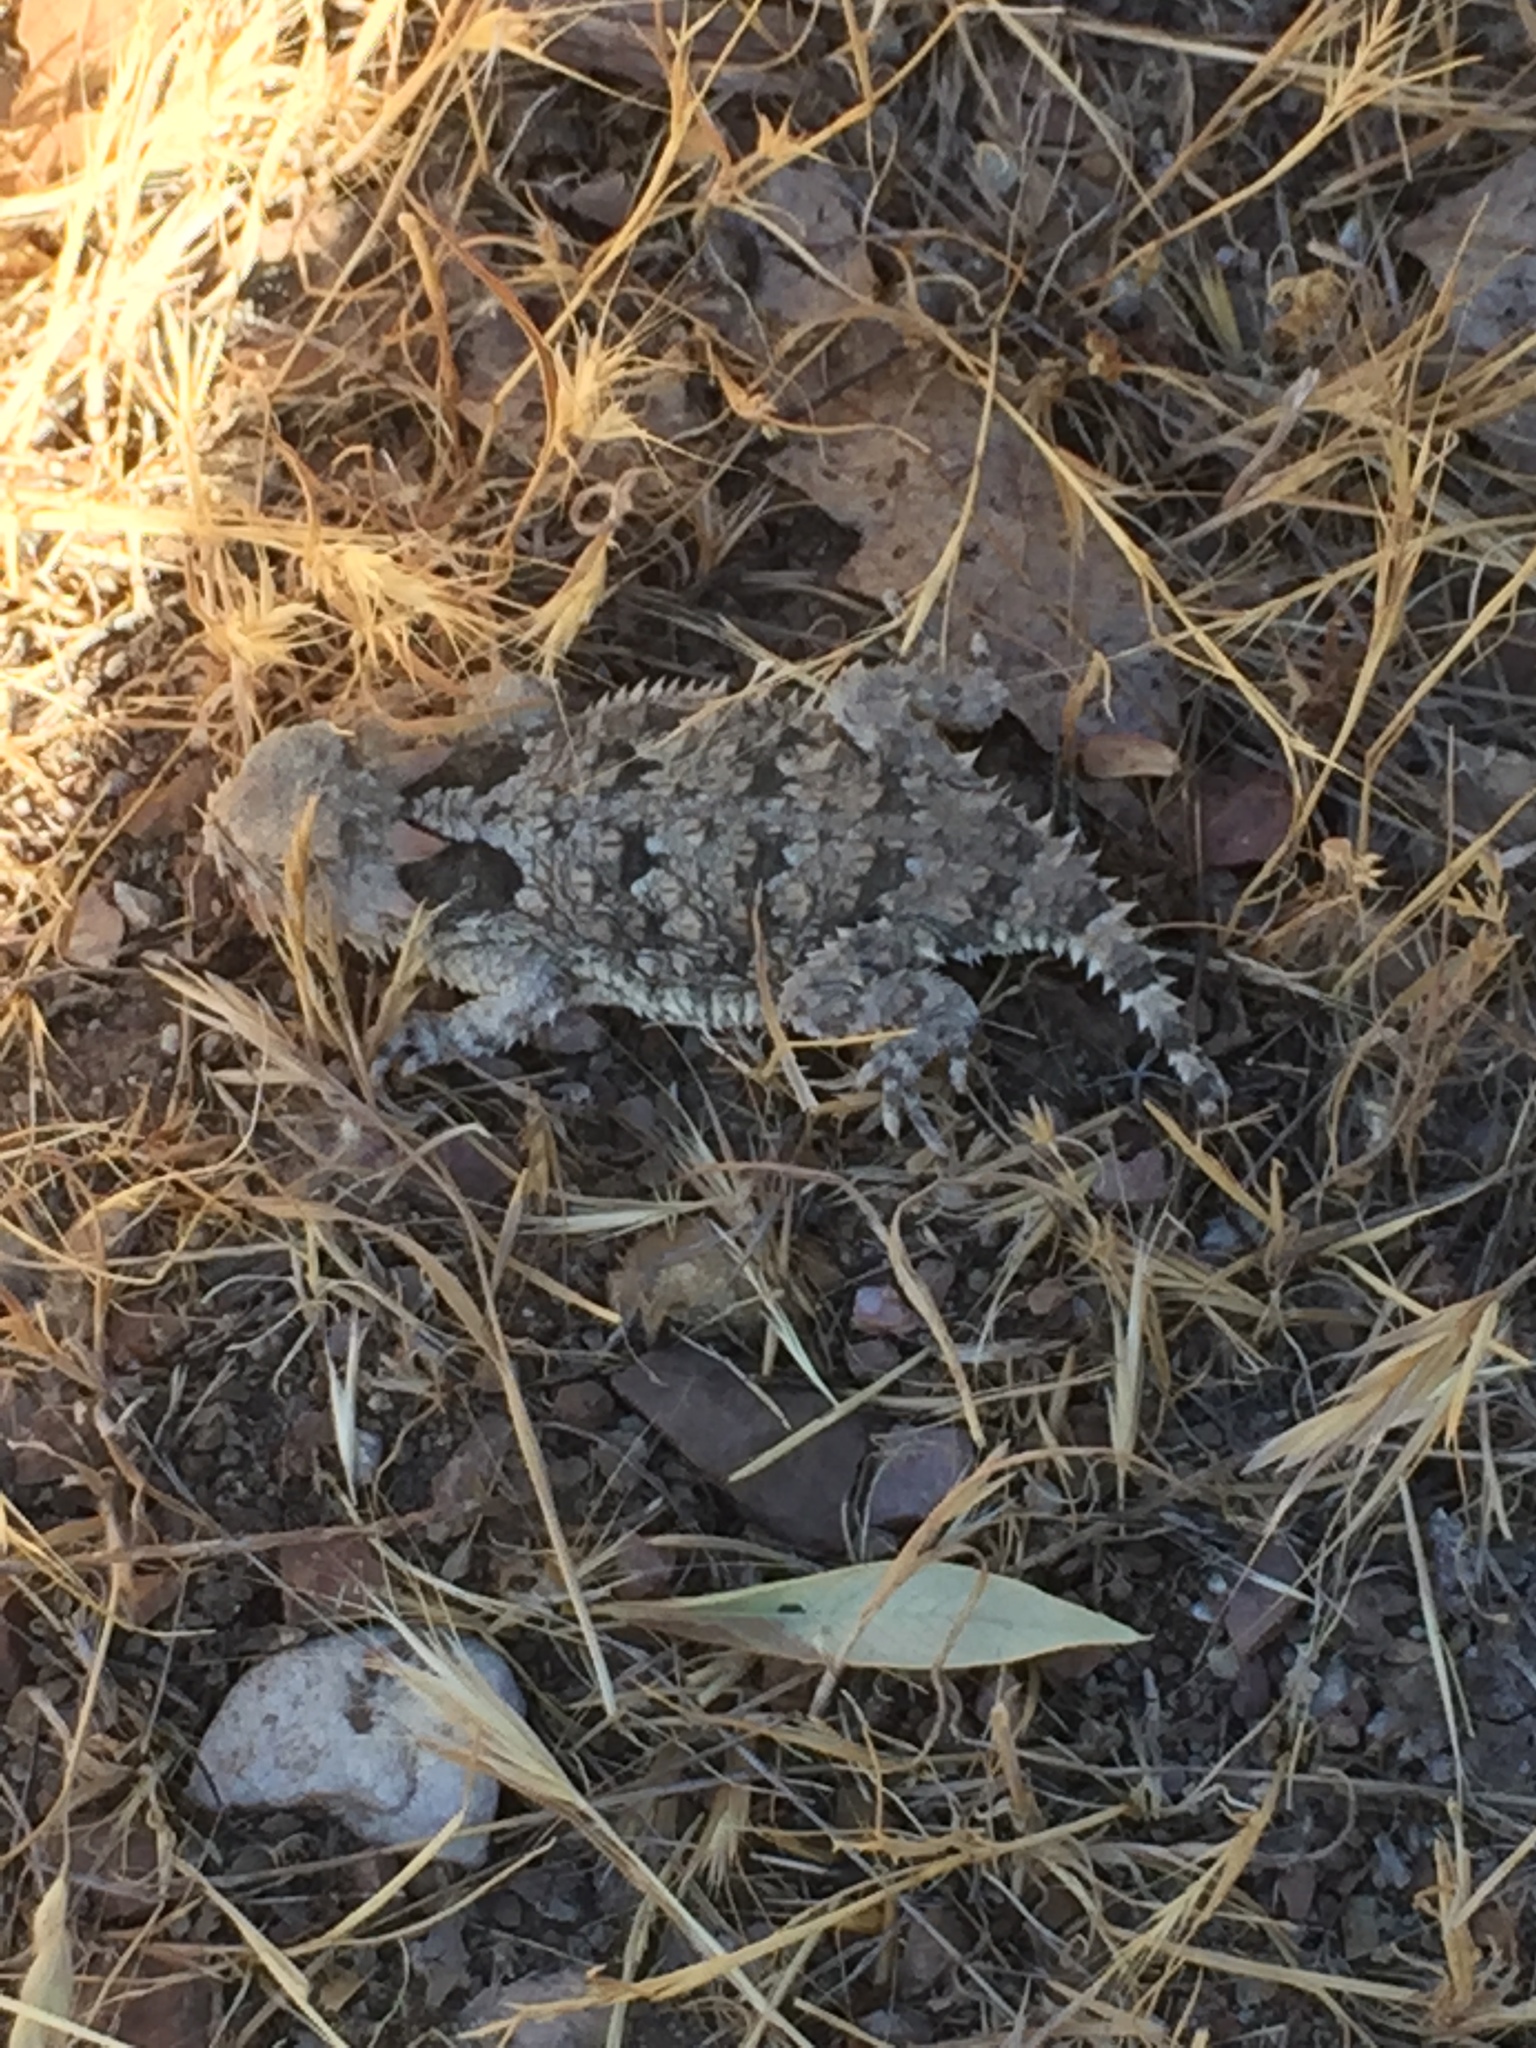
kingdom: Animalia
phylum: Chordata
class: Squamata
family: Phrynosomatidae
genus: Phrynosoma
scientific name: Phrynosoma blainvillii
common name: San diego horned lizard
